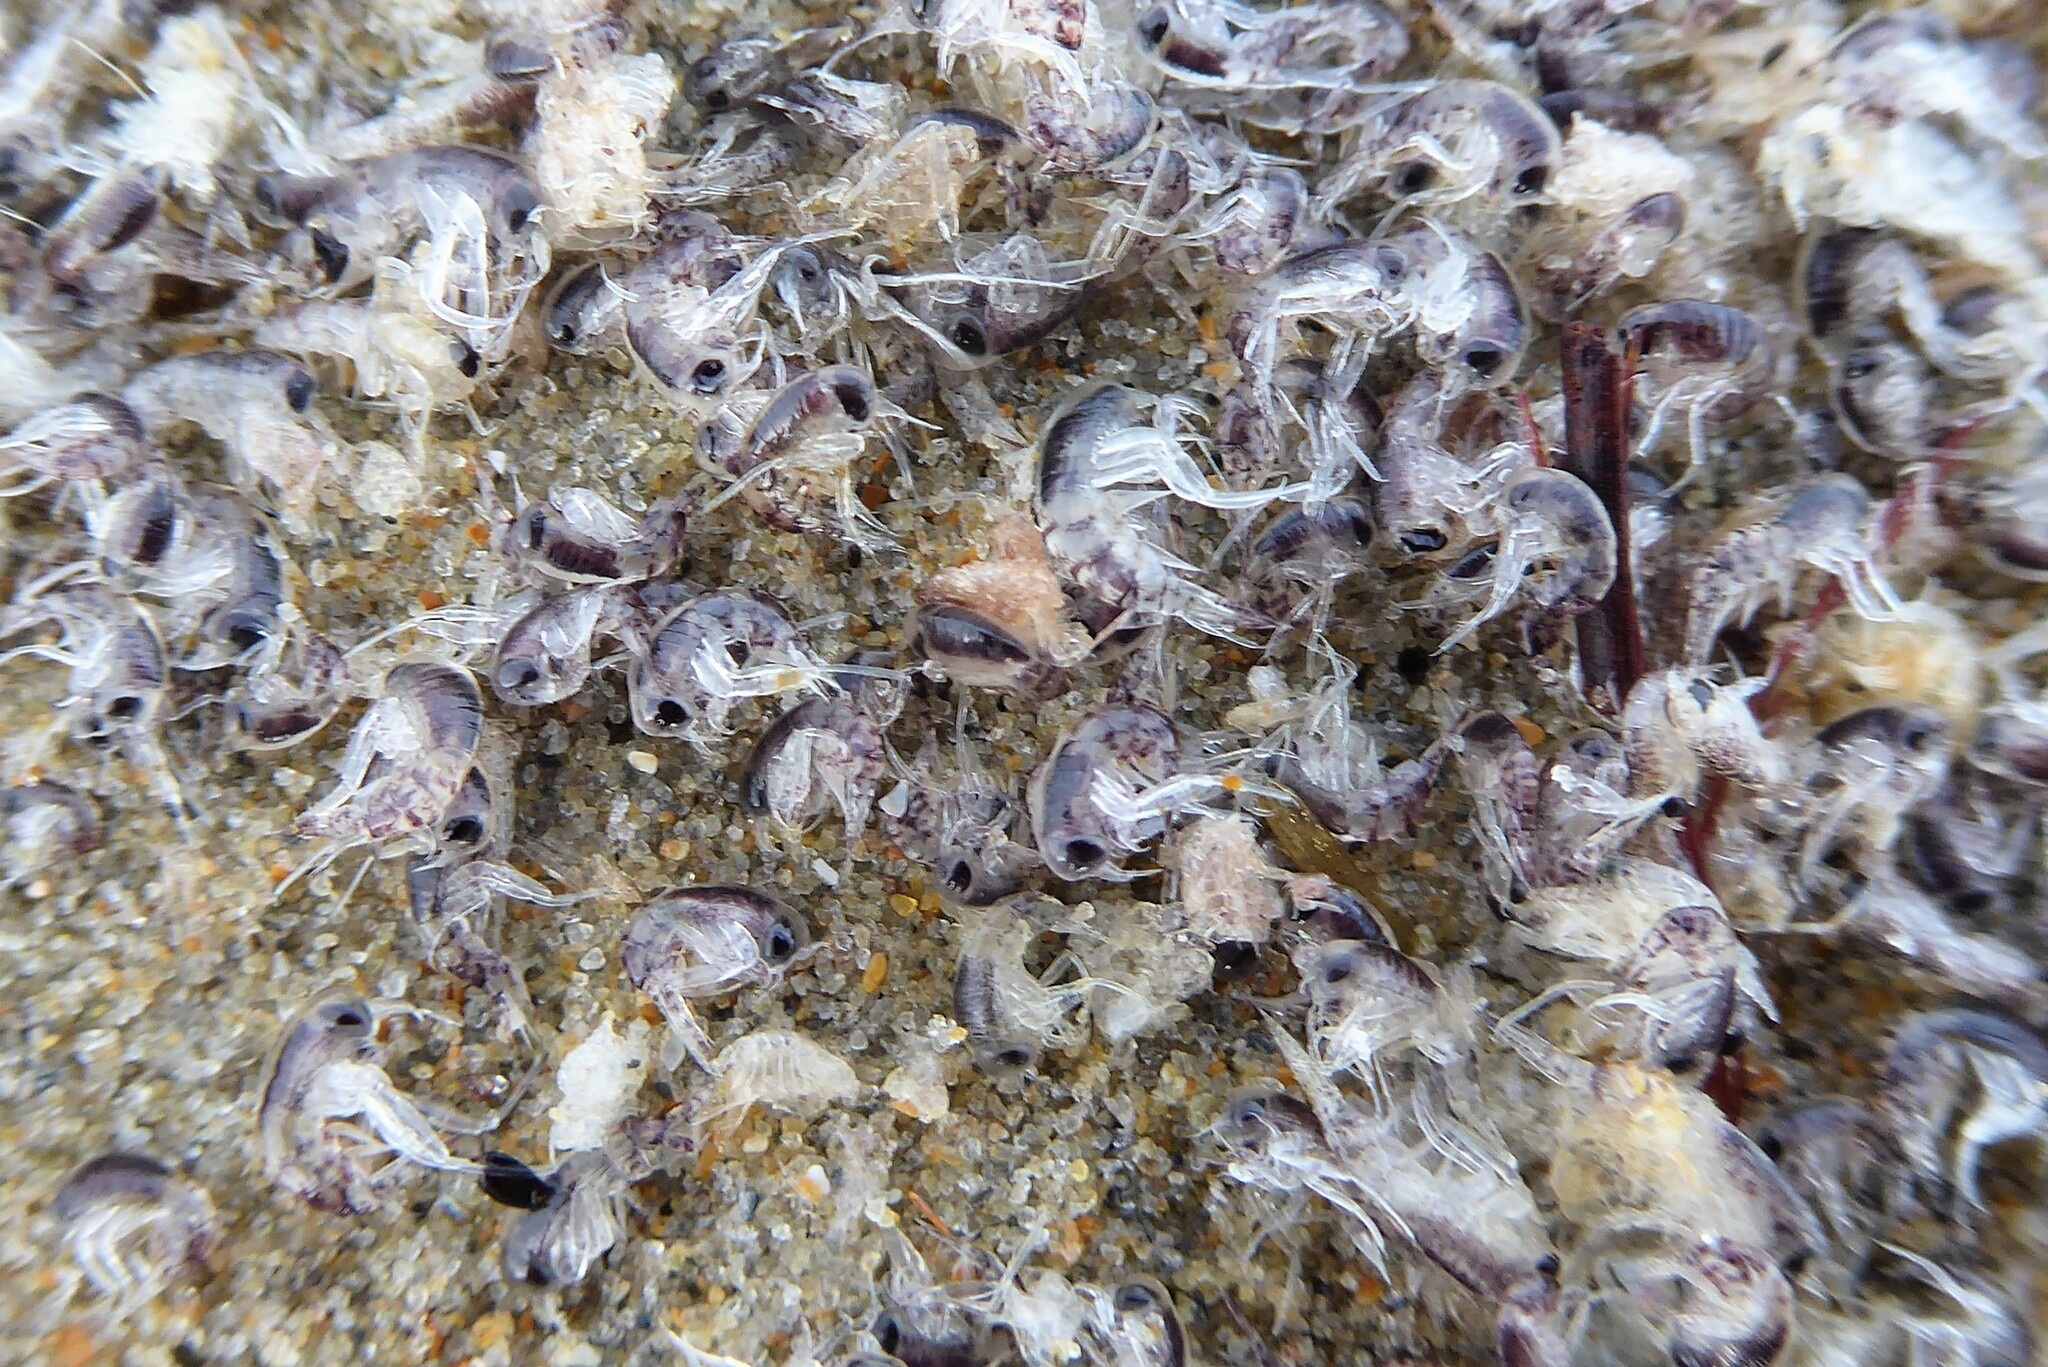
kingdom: Animalia
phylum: Arthropoda
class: Malacostraca
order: Amphipoda
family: Hyperiidae
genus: Themisto
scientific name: Themisto australis
